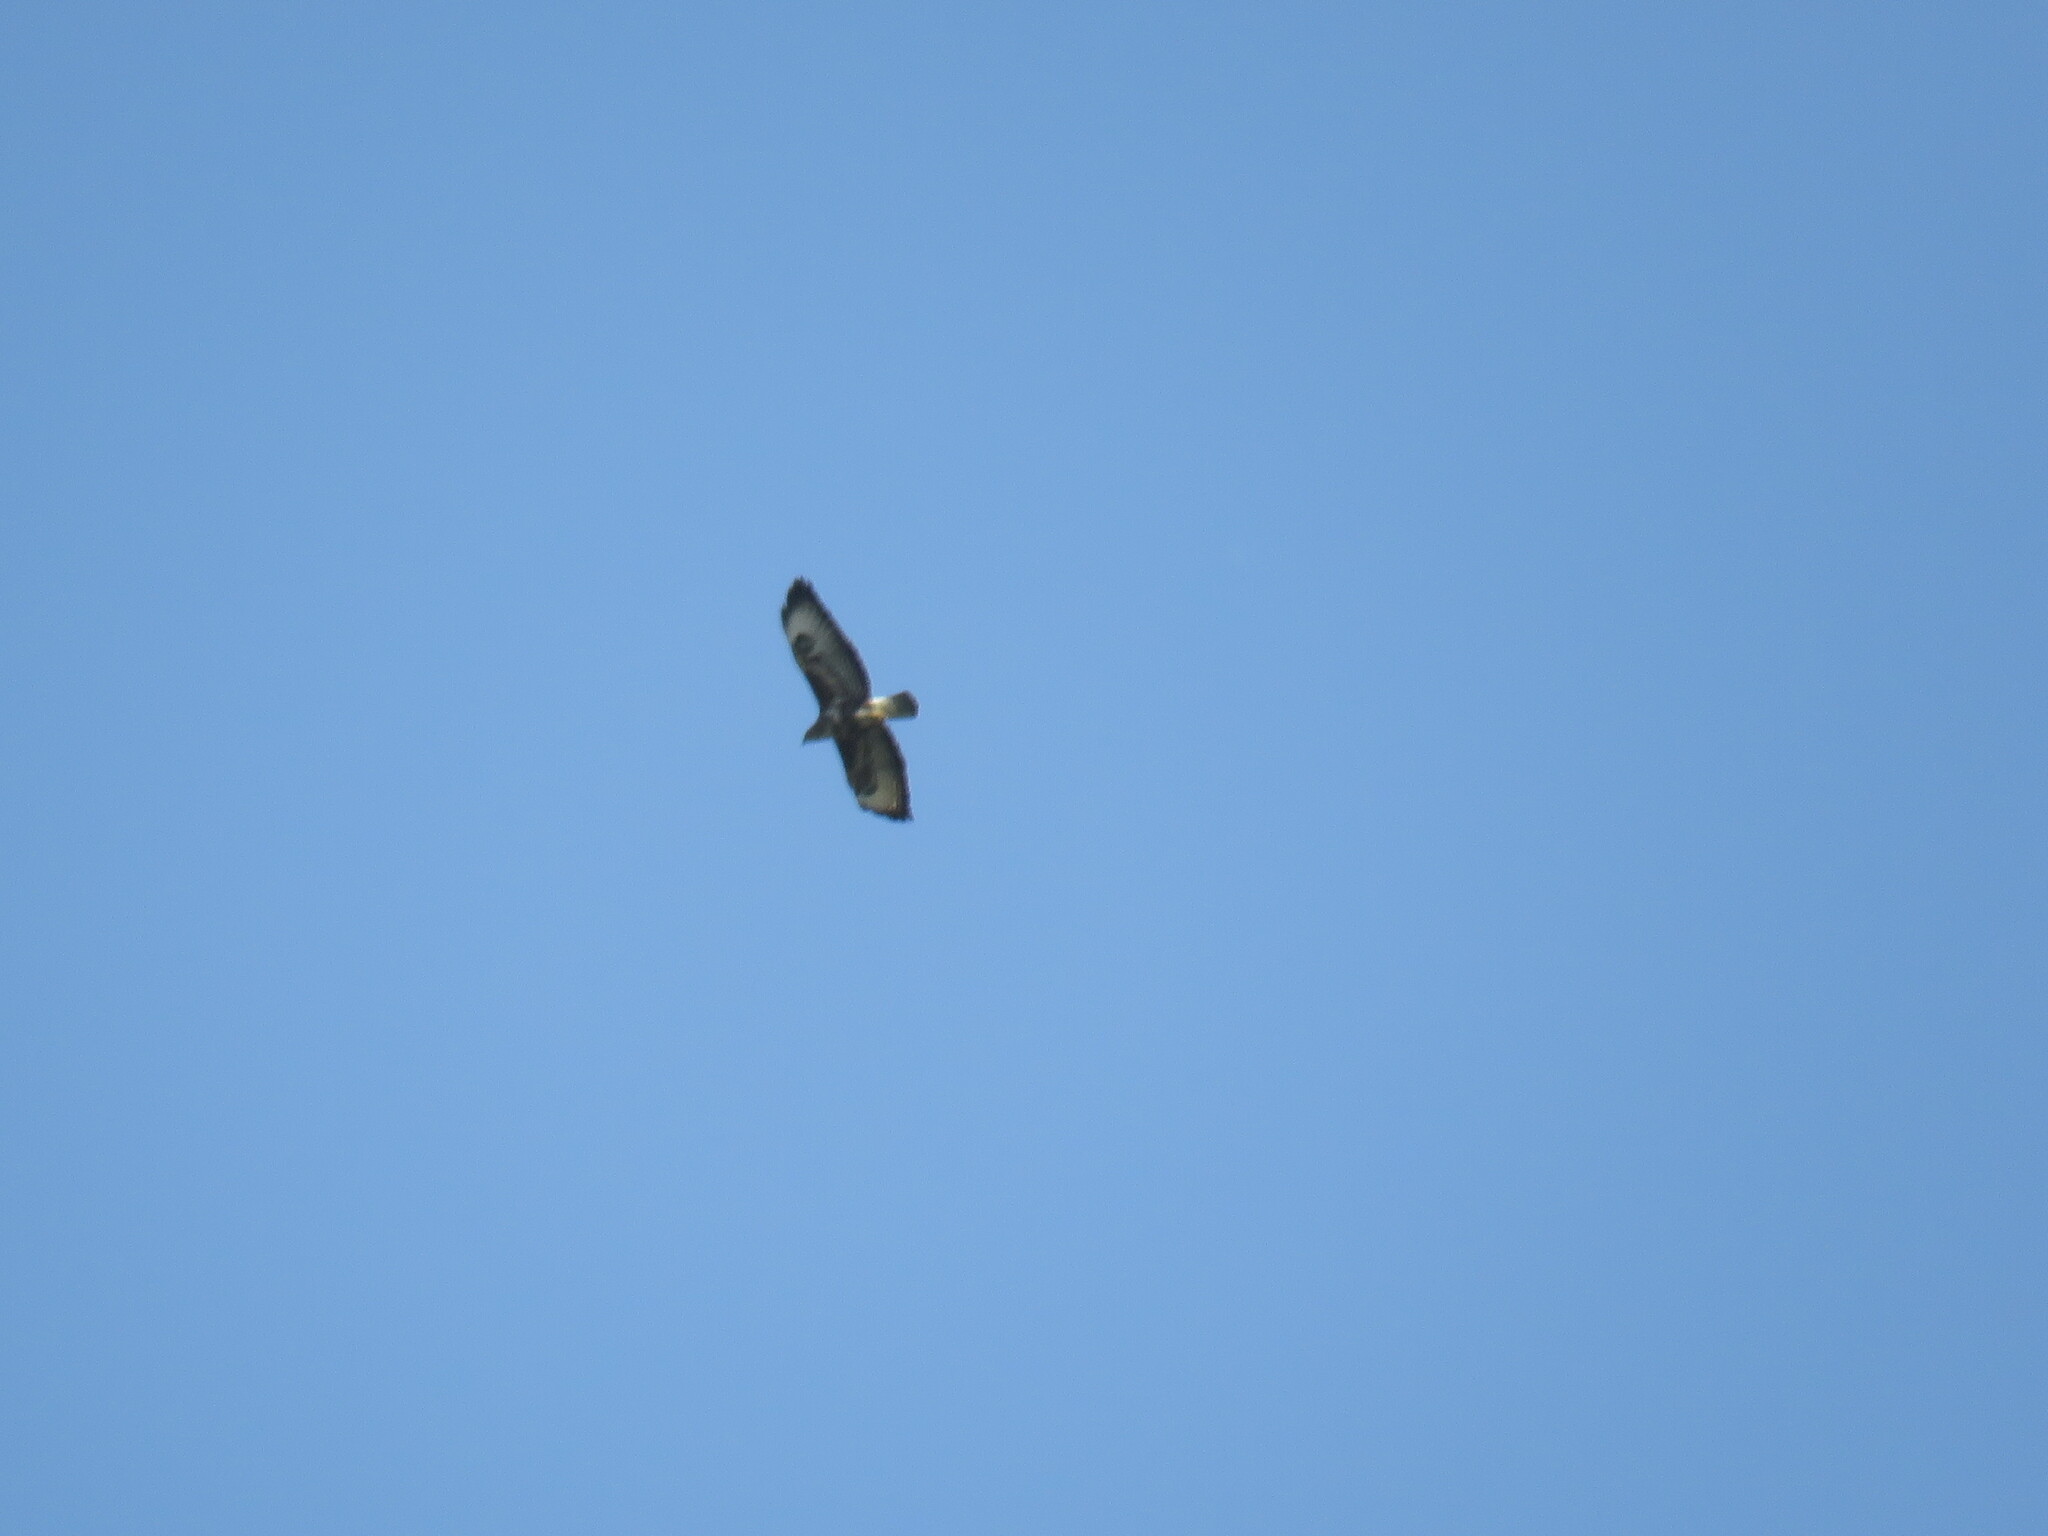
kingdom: Animalia
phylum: Chordata
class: Aves
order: Accipitriformes
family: Accipitridae
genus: Buteo
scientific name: Buteo buteo
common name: Common buzzard
